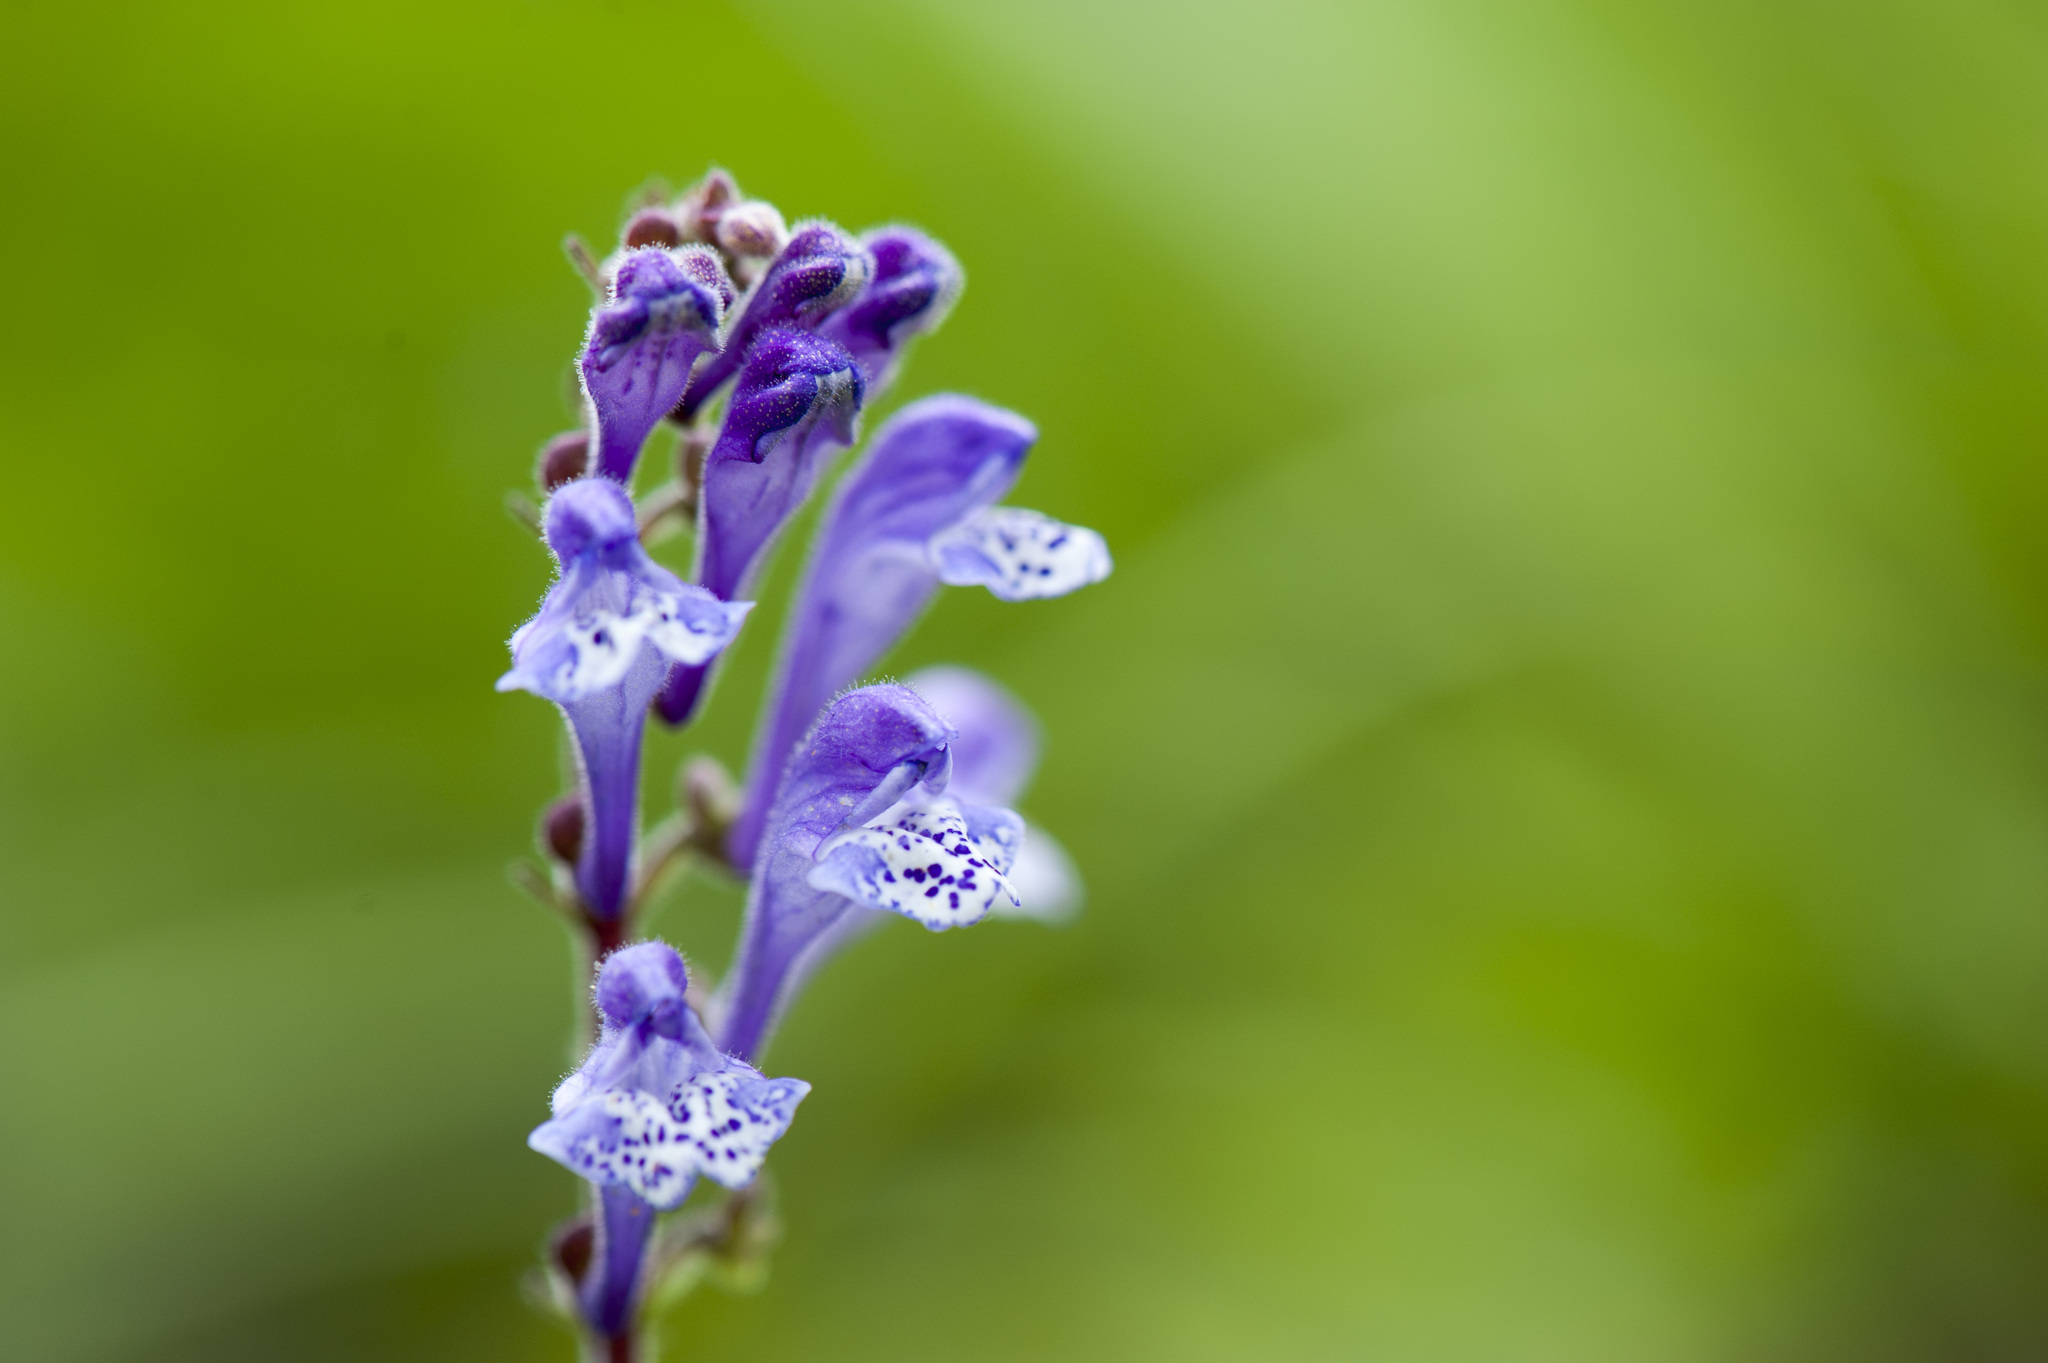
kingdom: Plantae
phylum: Tracheophyta
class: Magnoliopsida
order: Lamiales
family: Lamiaceae
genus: Scutellaria
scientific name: Scutellaria indica
